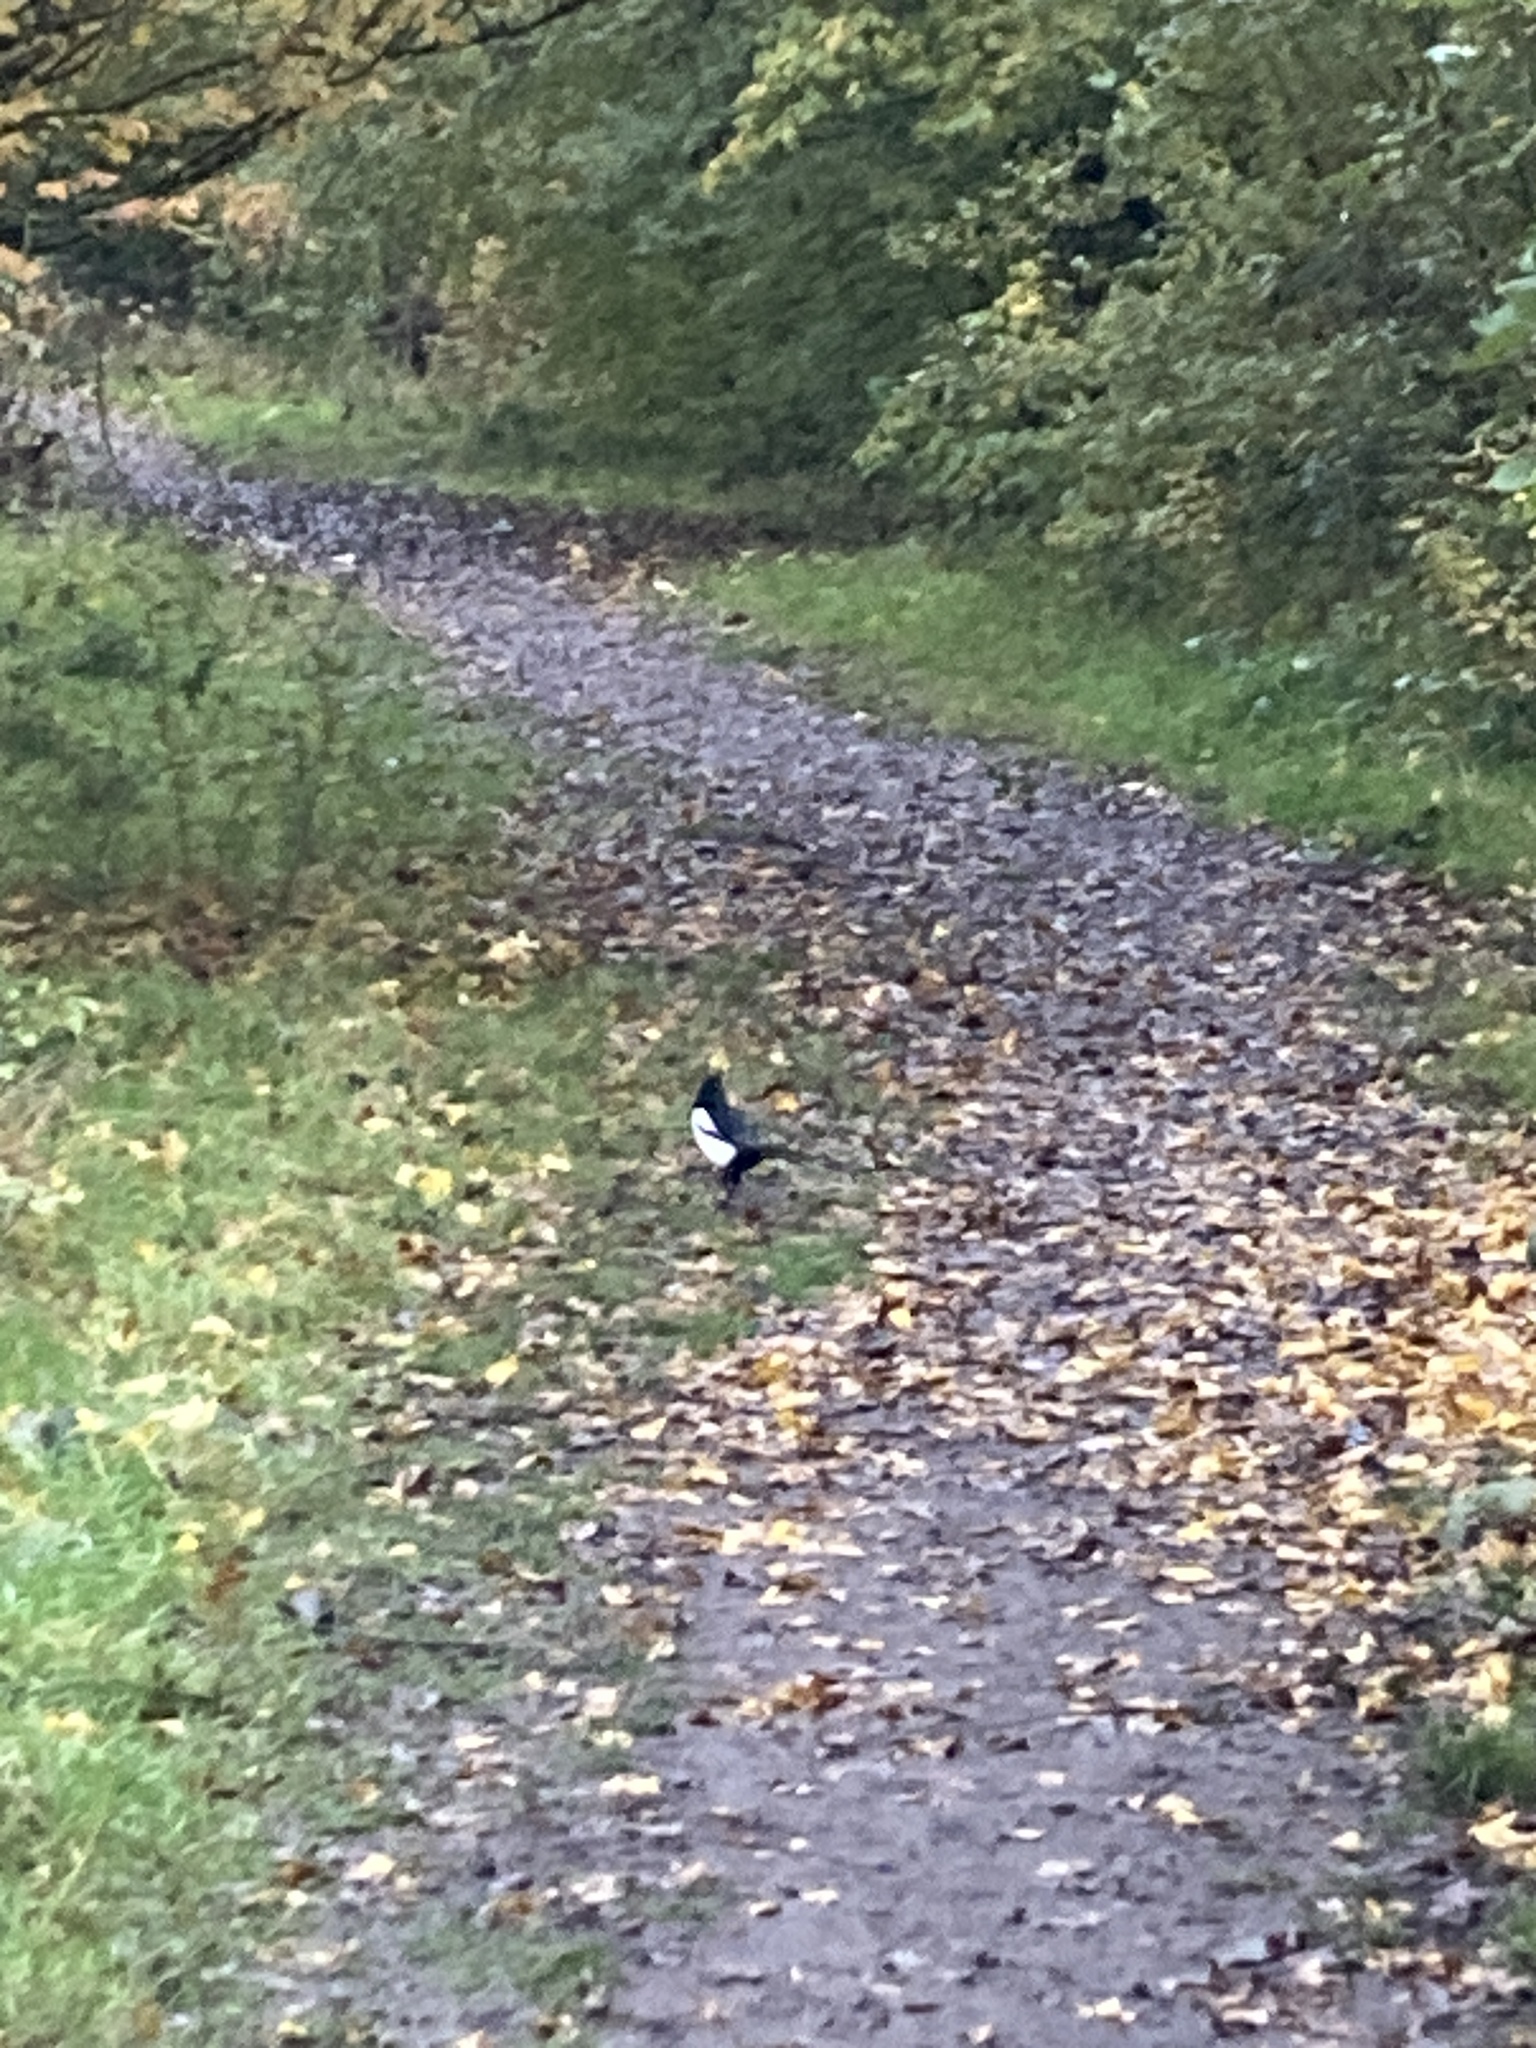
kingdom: Animalia
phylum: Chordata
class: Aves
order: Passeriformes
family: Corvidae
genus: Pica
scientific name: Pica pica
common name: Eurasian magpie
